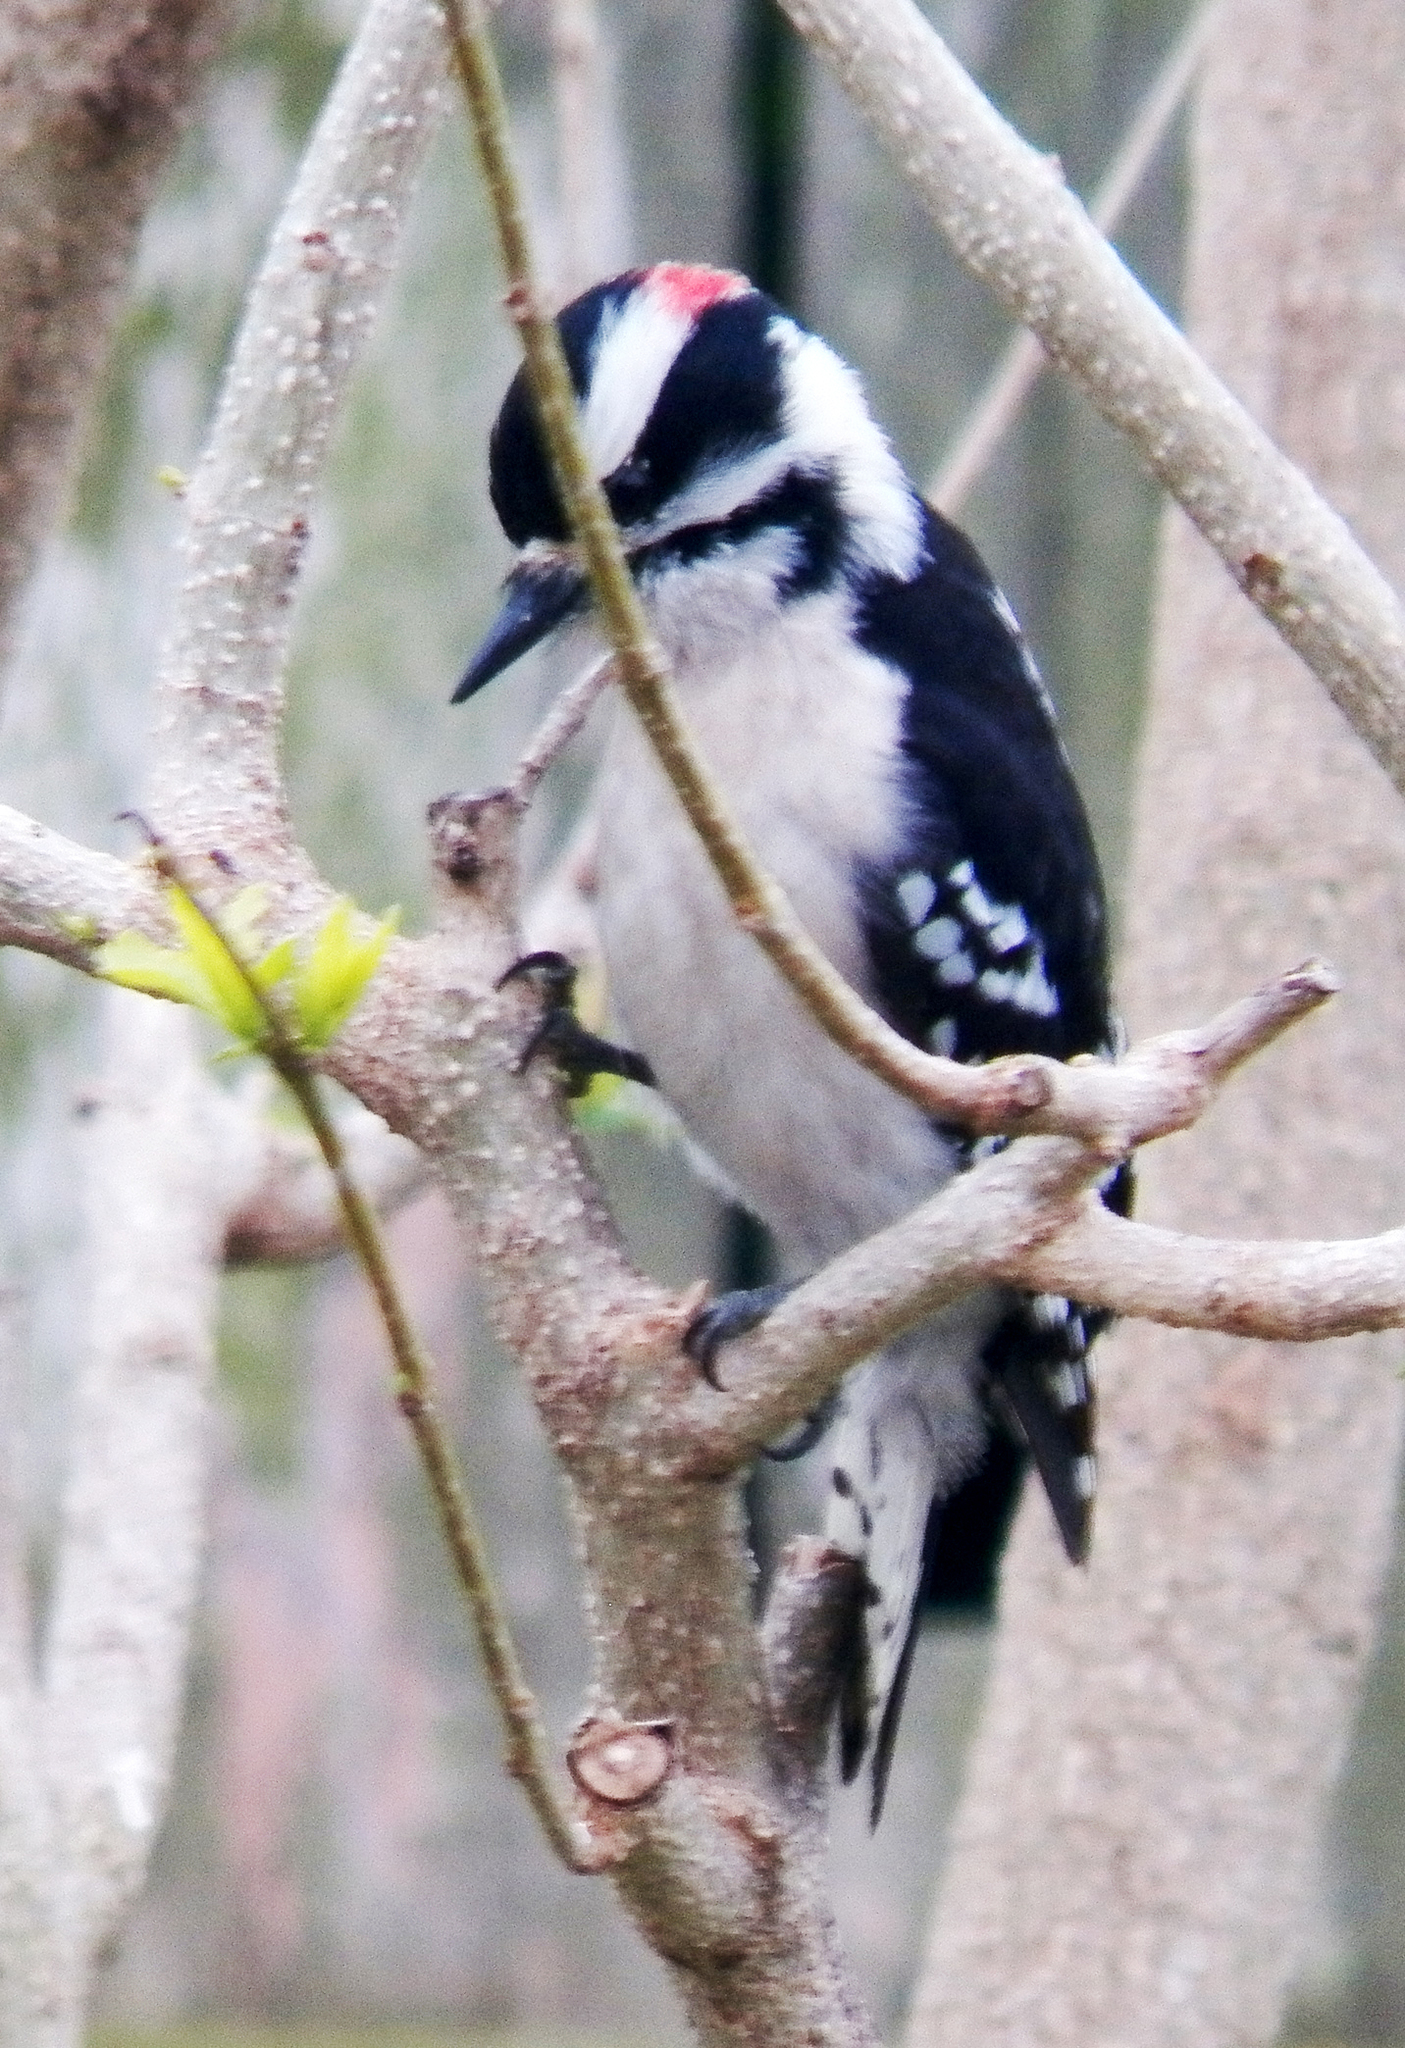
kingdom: Animalia
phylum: Chordata
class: Aves
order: Piciformes
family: Picidae
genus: Dryobates
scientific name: Dryobates pubescens
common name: Downy woodpecker
